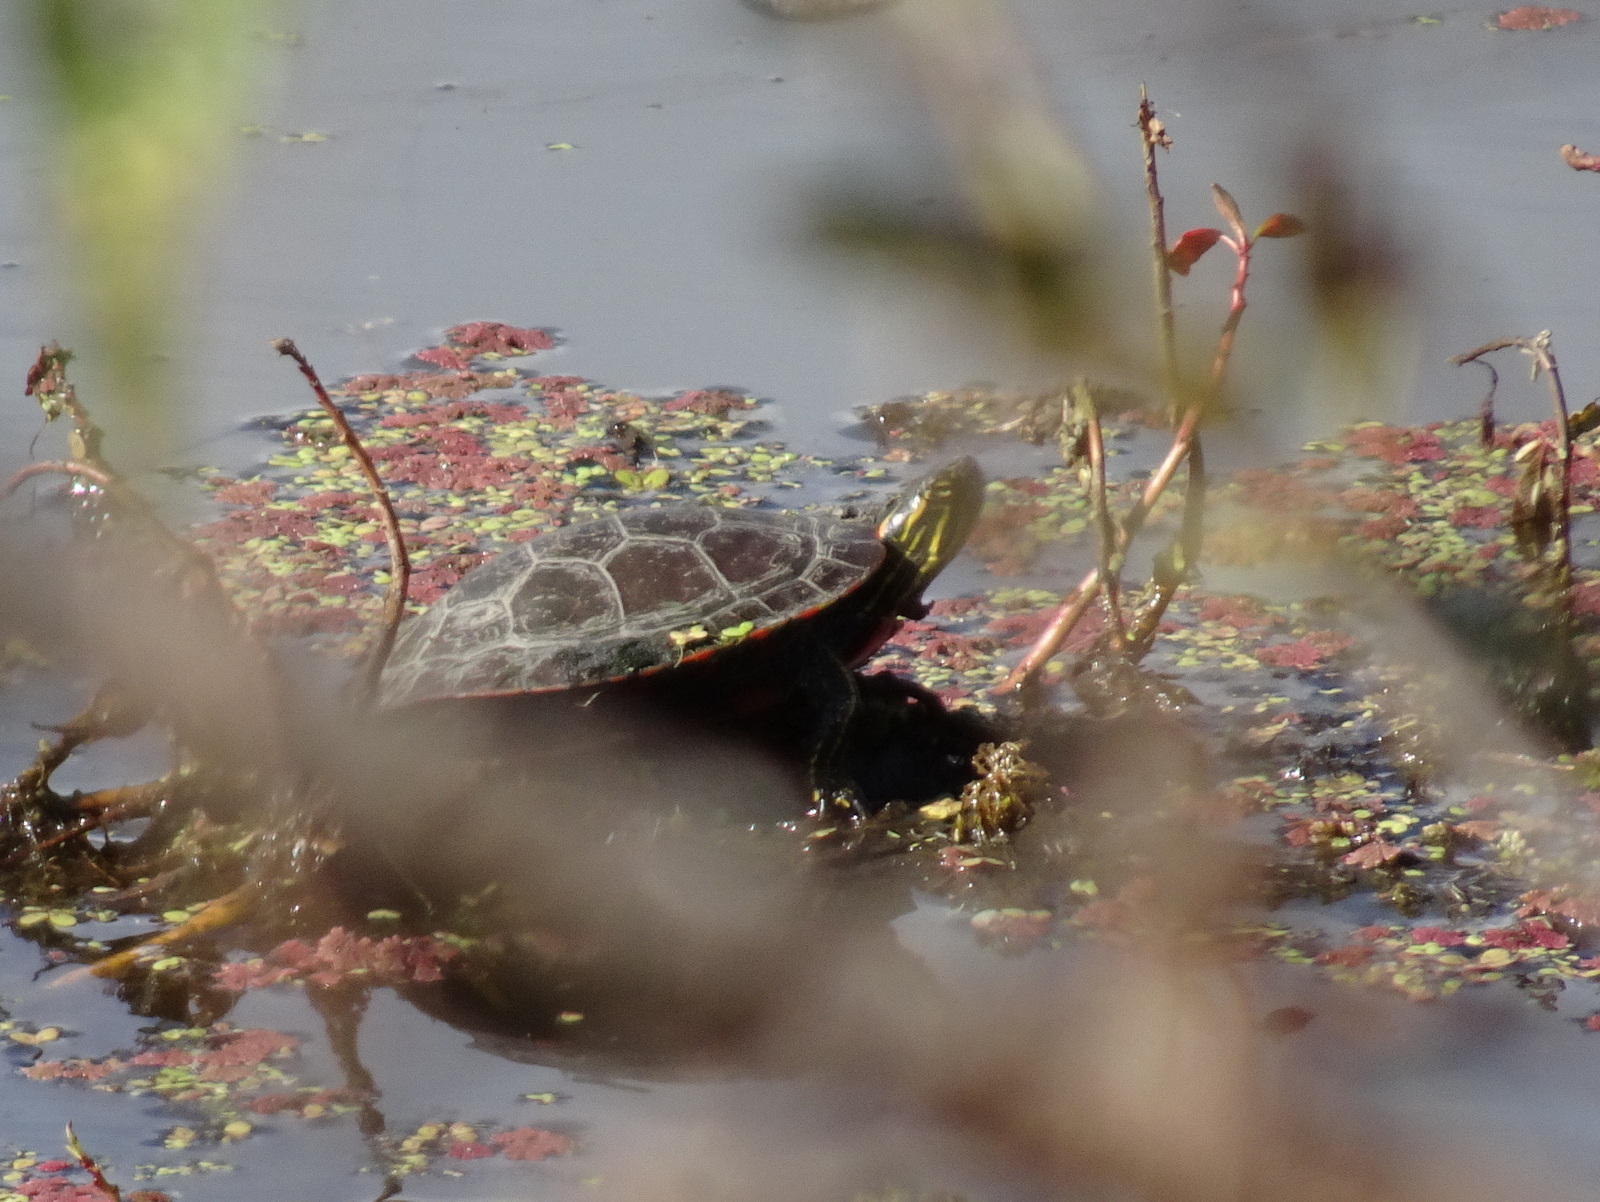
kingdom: Animalia
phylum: Chordata
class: Testudines
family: Emydidae
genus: Chrysemys
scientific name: Chrysemys picta
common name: Painted turtle
